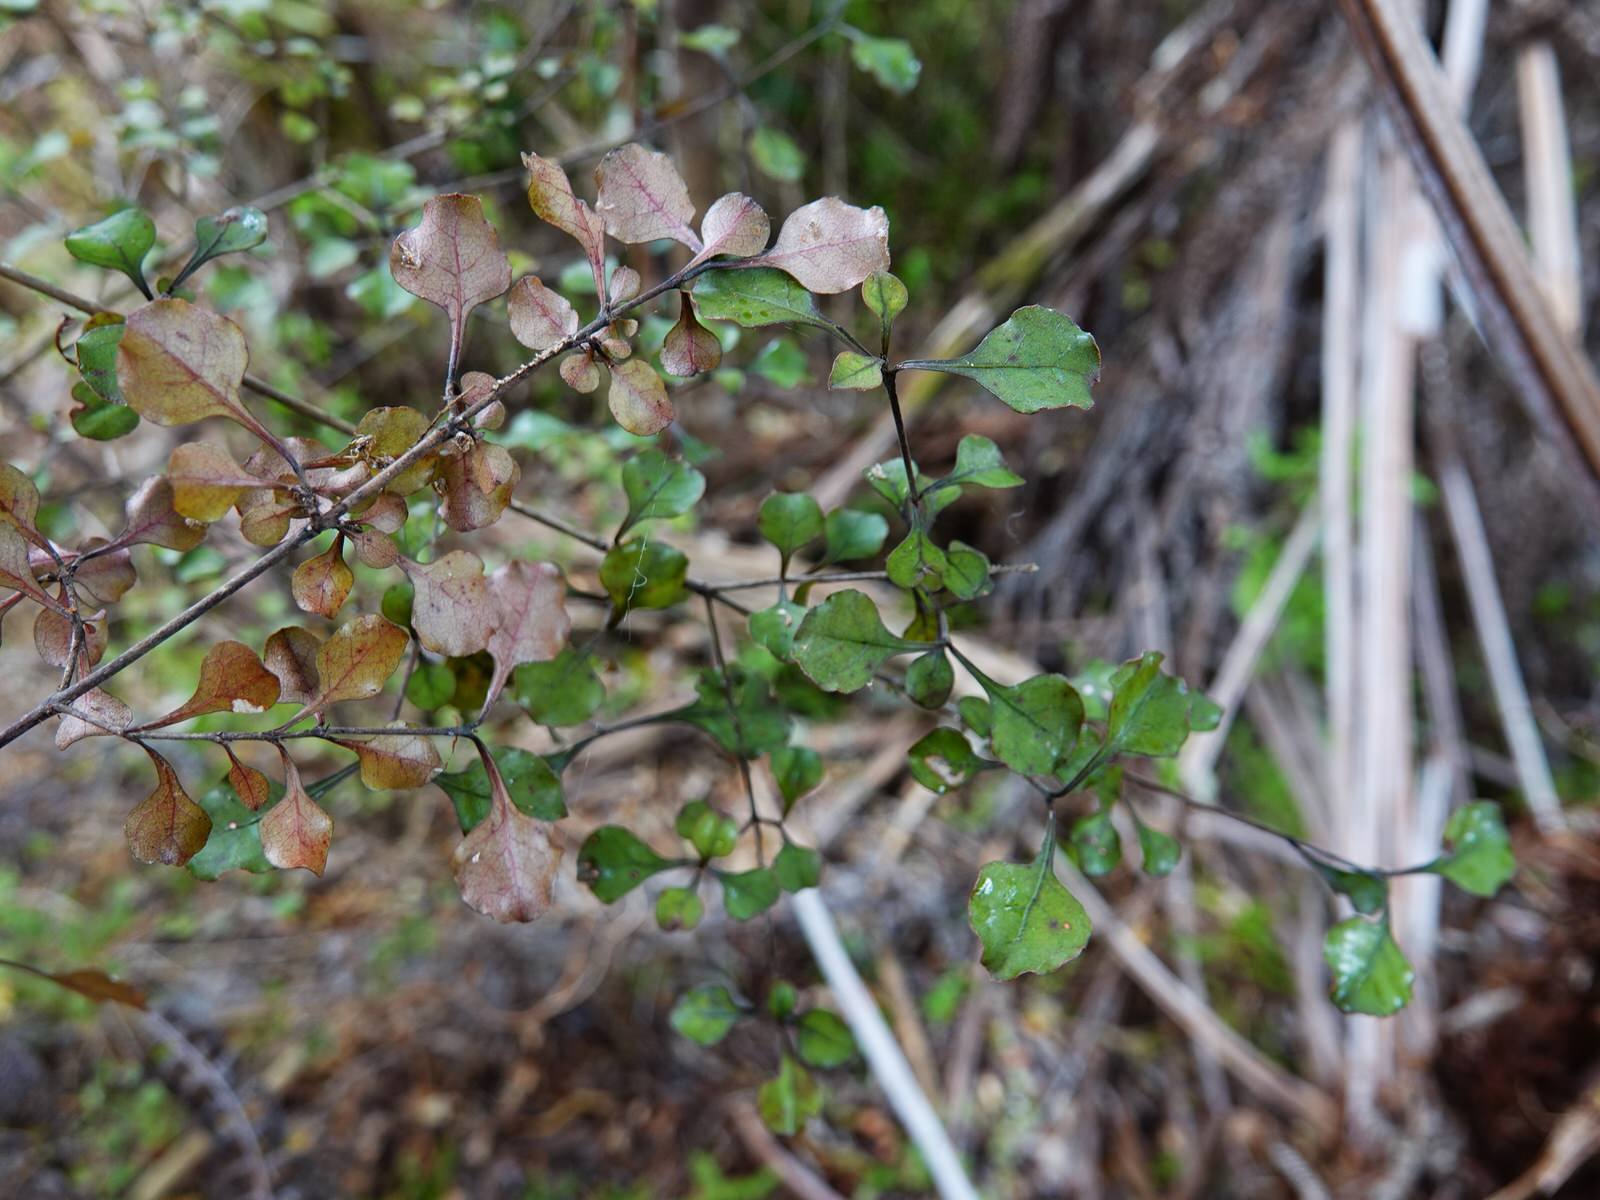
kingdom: Plantae
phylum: Tracheophyta
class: Magnoliopsida
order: Gentianales
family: Rubiaceae
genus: Coprosma
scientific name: Coprosma arborea
